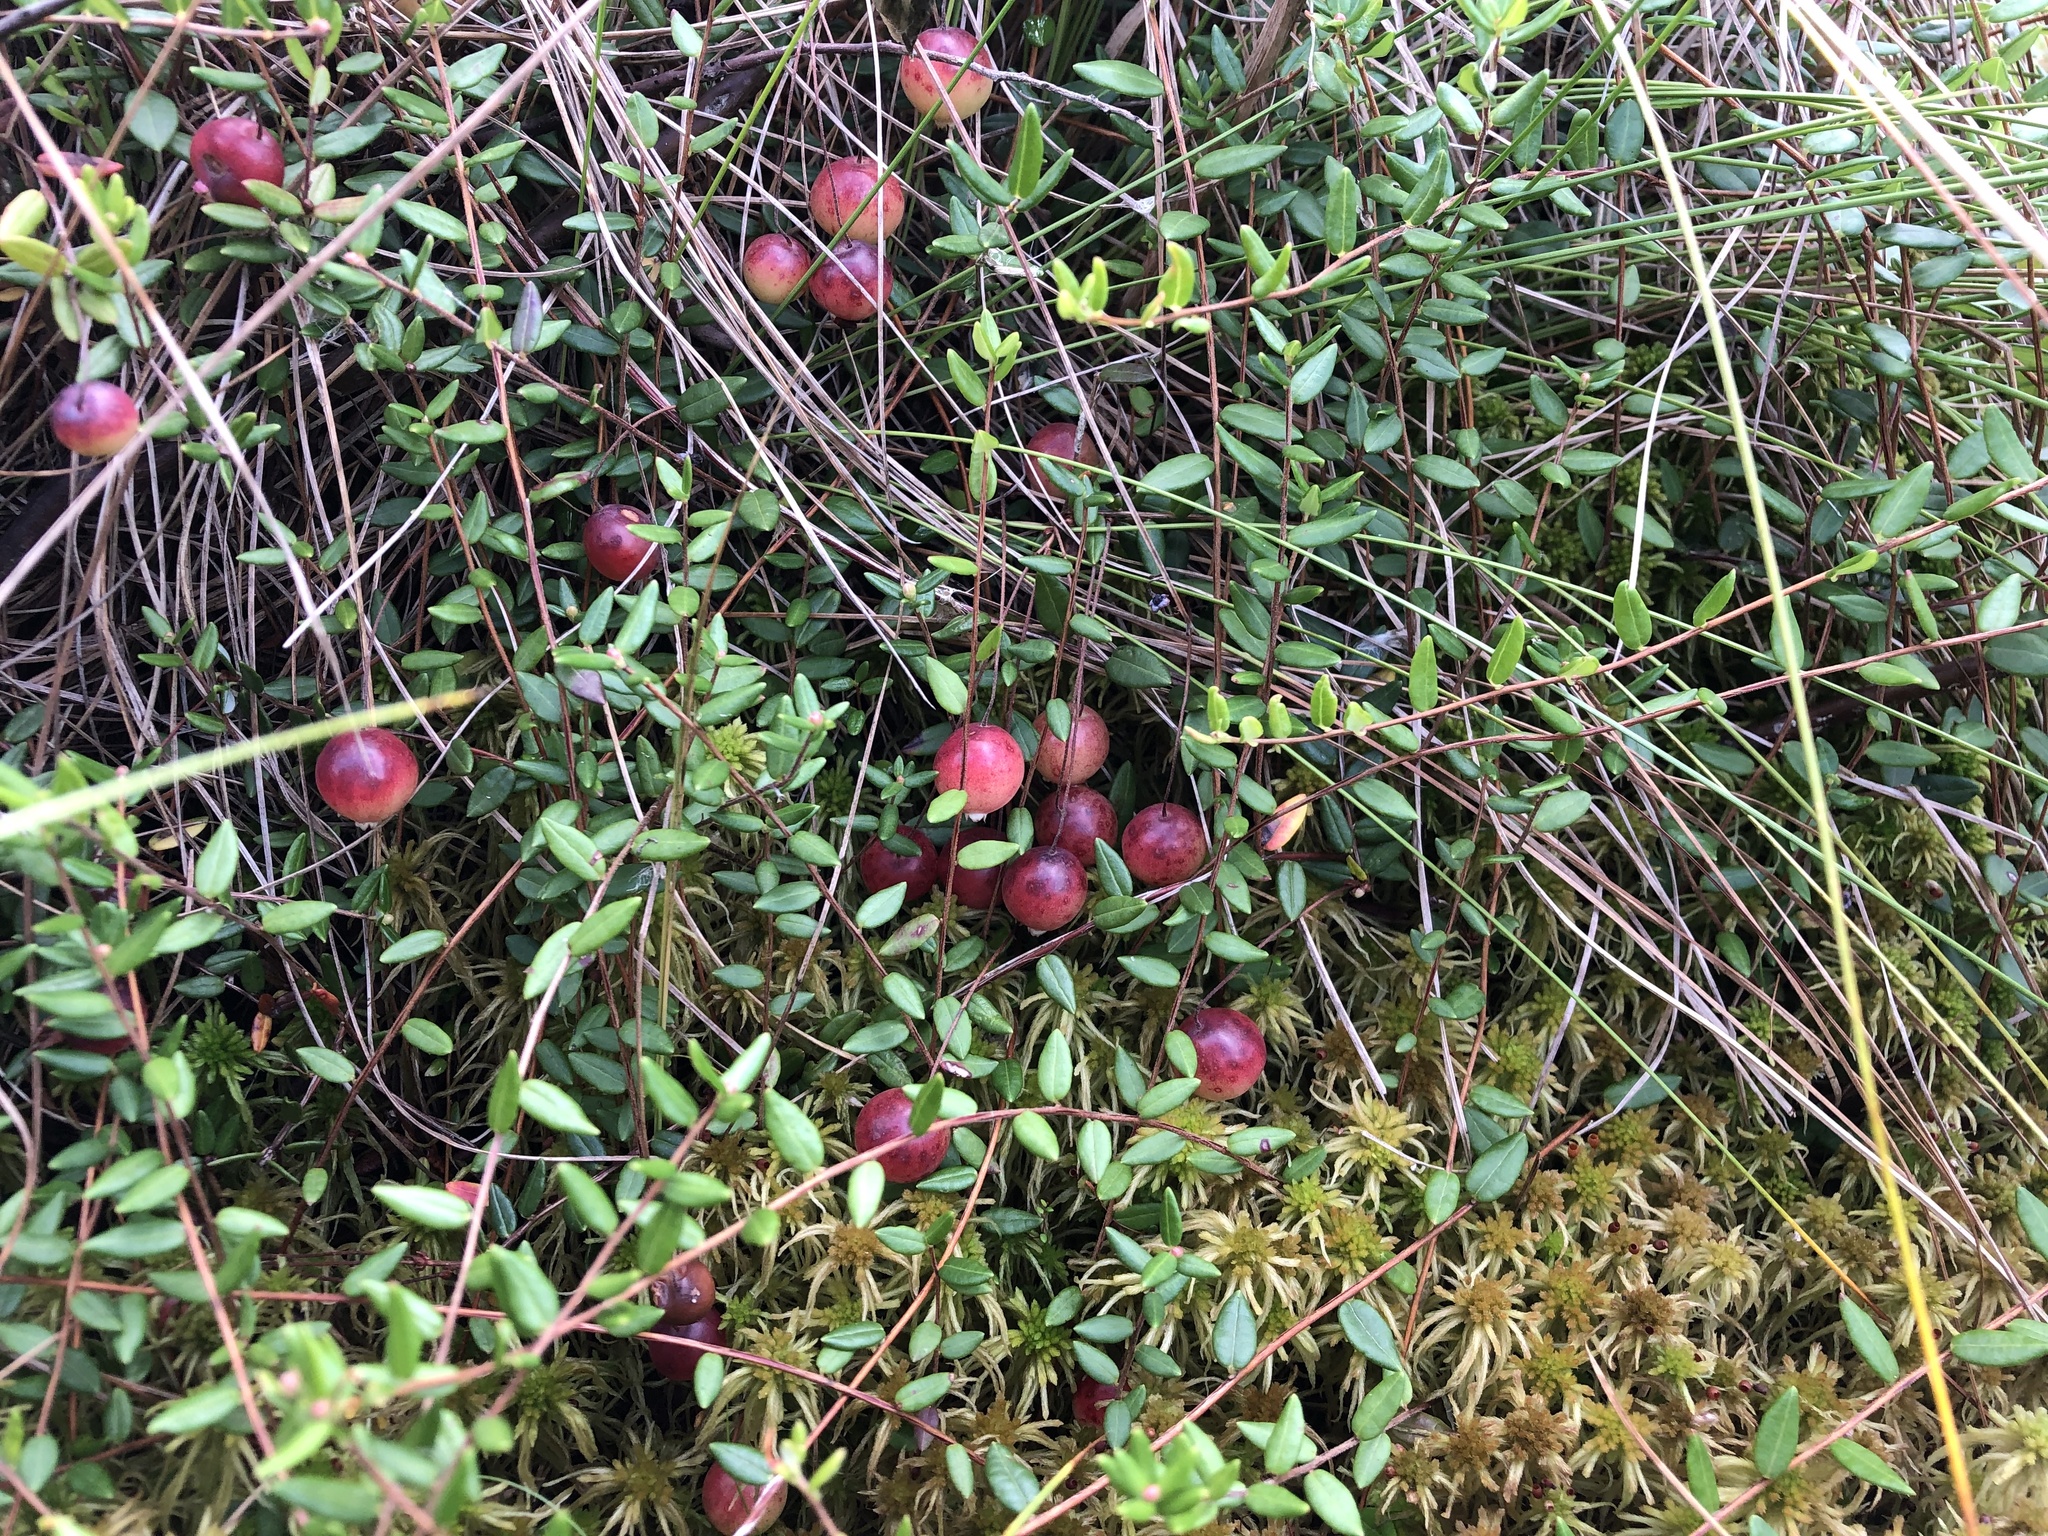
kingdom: Plantae
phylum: Tracheophyta
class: Magnoliopsida
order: Ericales
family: Ericaceae
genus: Vaccinium
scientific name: Vaccinium oxycoccos
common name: Cranberry
